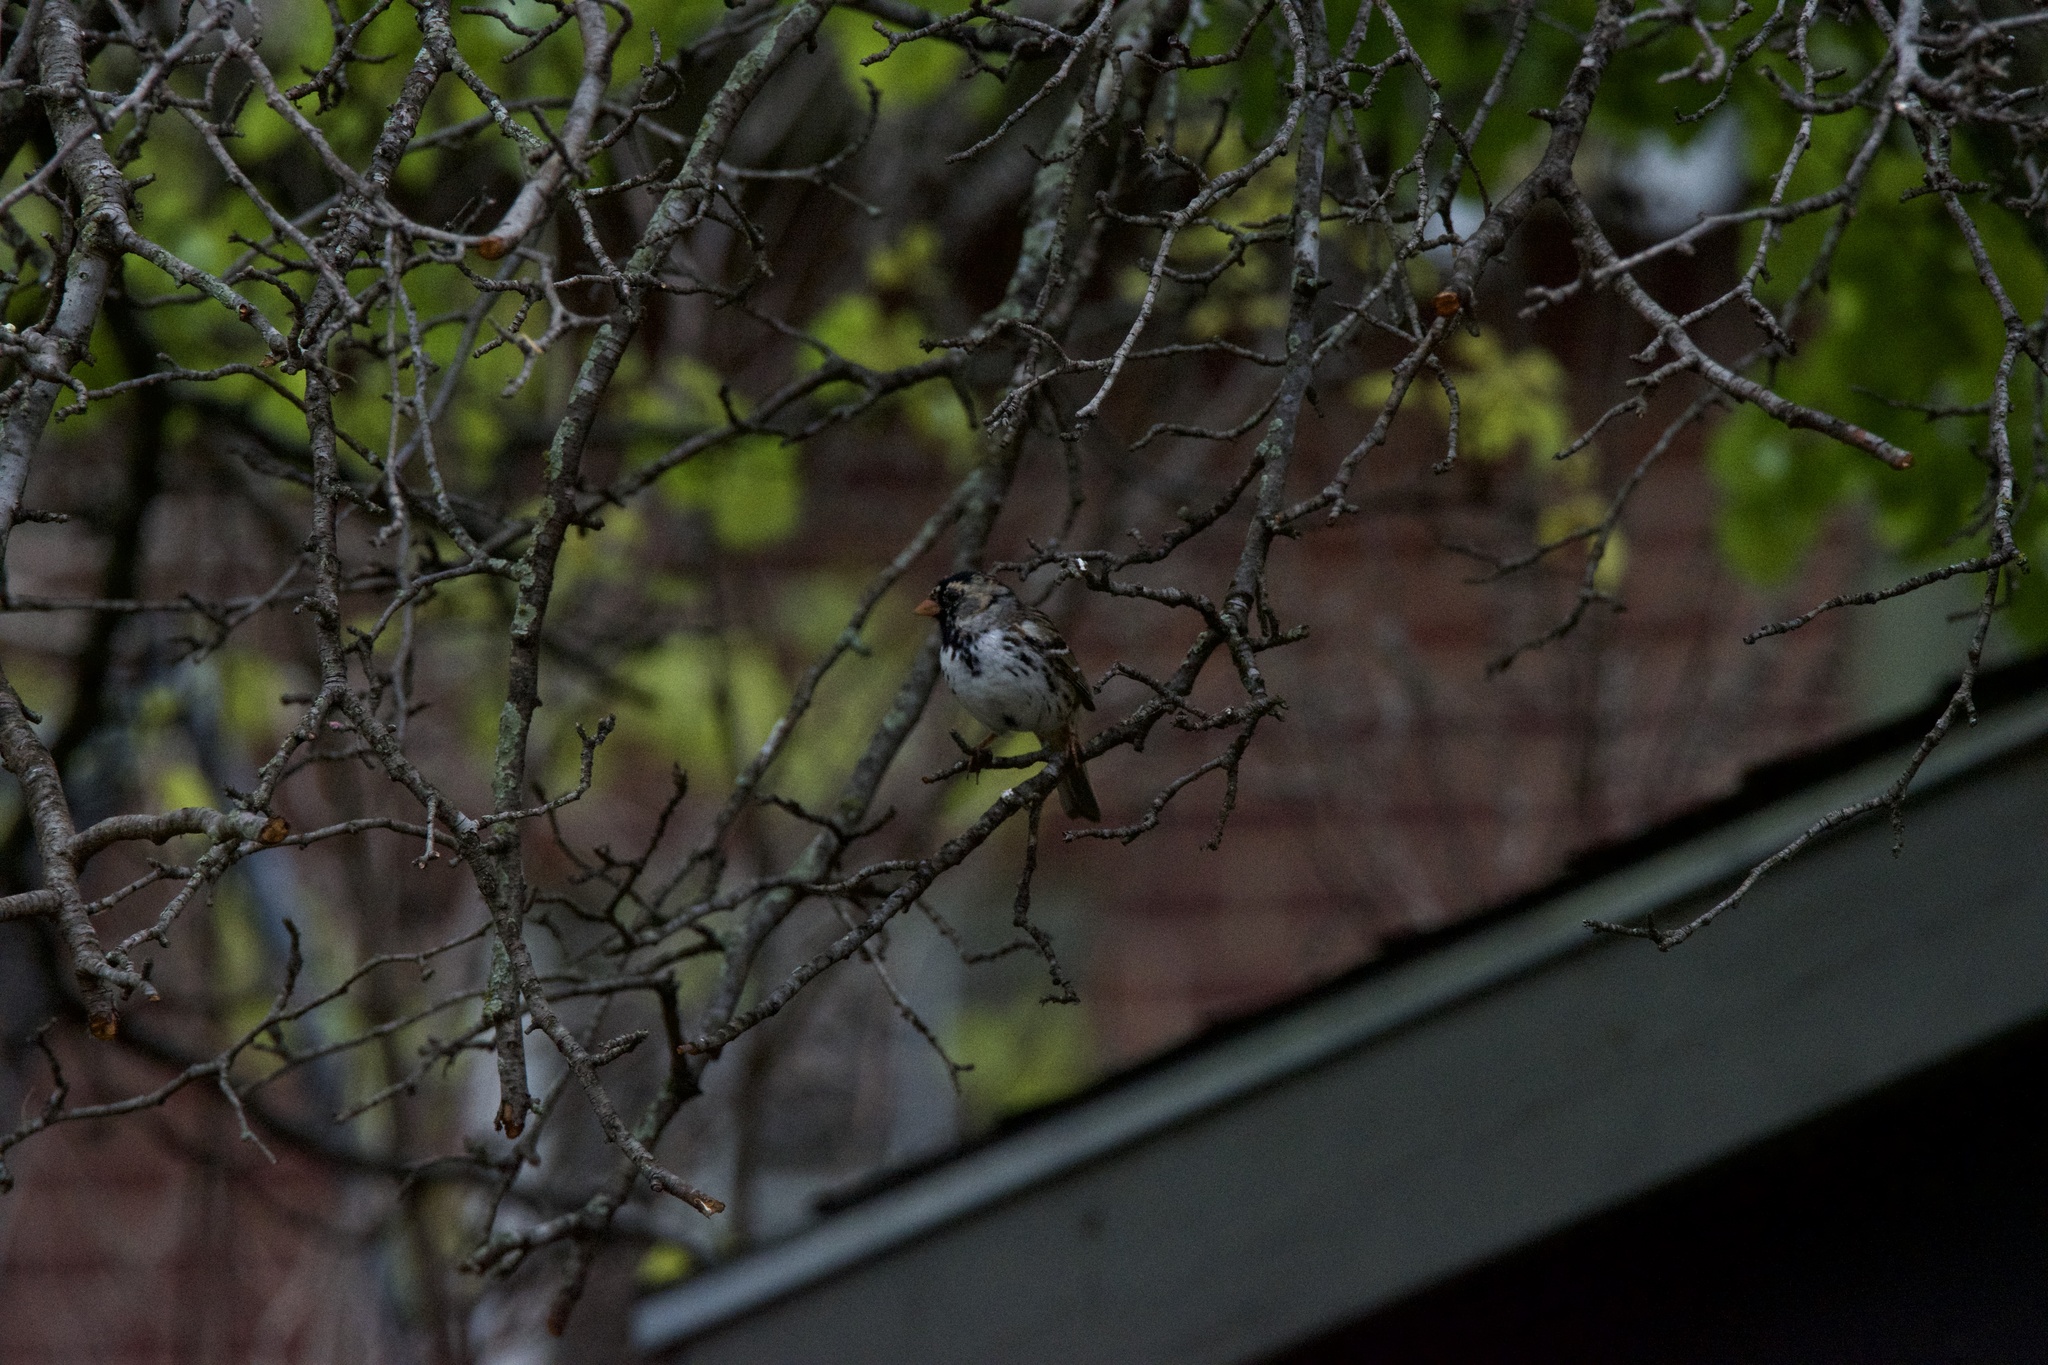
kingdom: Animalia
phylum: Chordata
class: Aves
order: Passeriformes
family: Passerellidae
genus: Zonotrichia
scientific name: Zonotrichia querula
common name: Harris's sparrow
